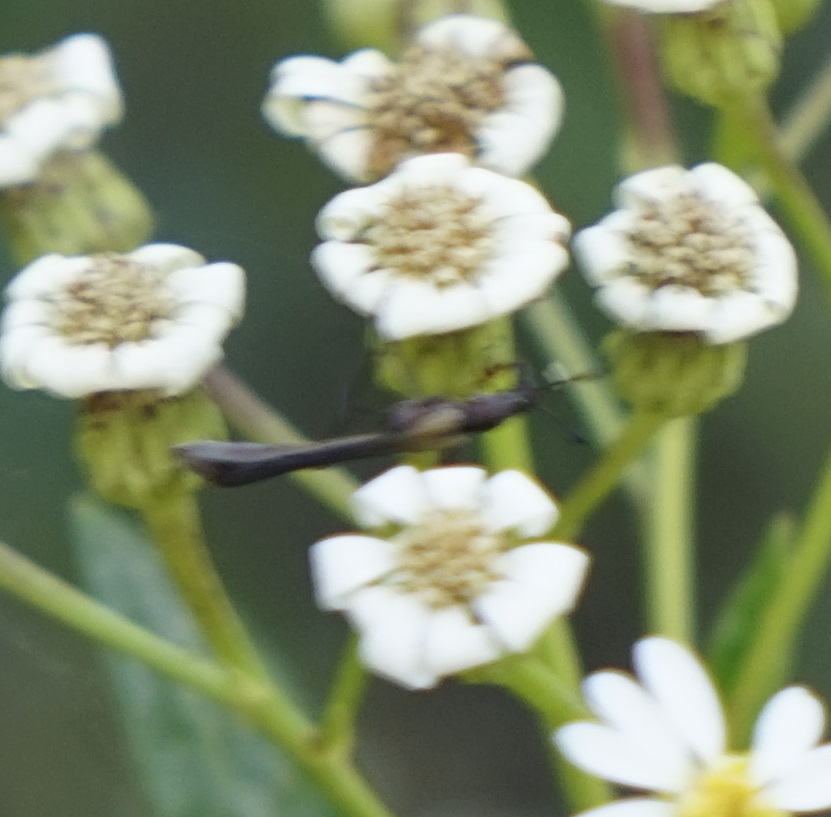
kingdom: Animalia
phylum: Arthropoda
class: Insecta
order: Coleoptera
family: Cerambycidae
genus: Enchoptera
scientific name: Enchoptera apicalis
